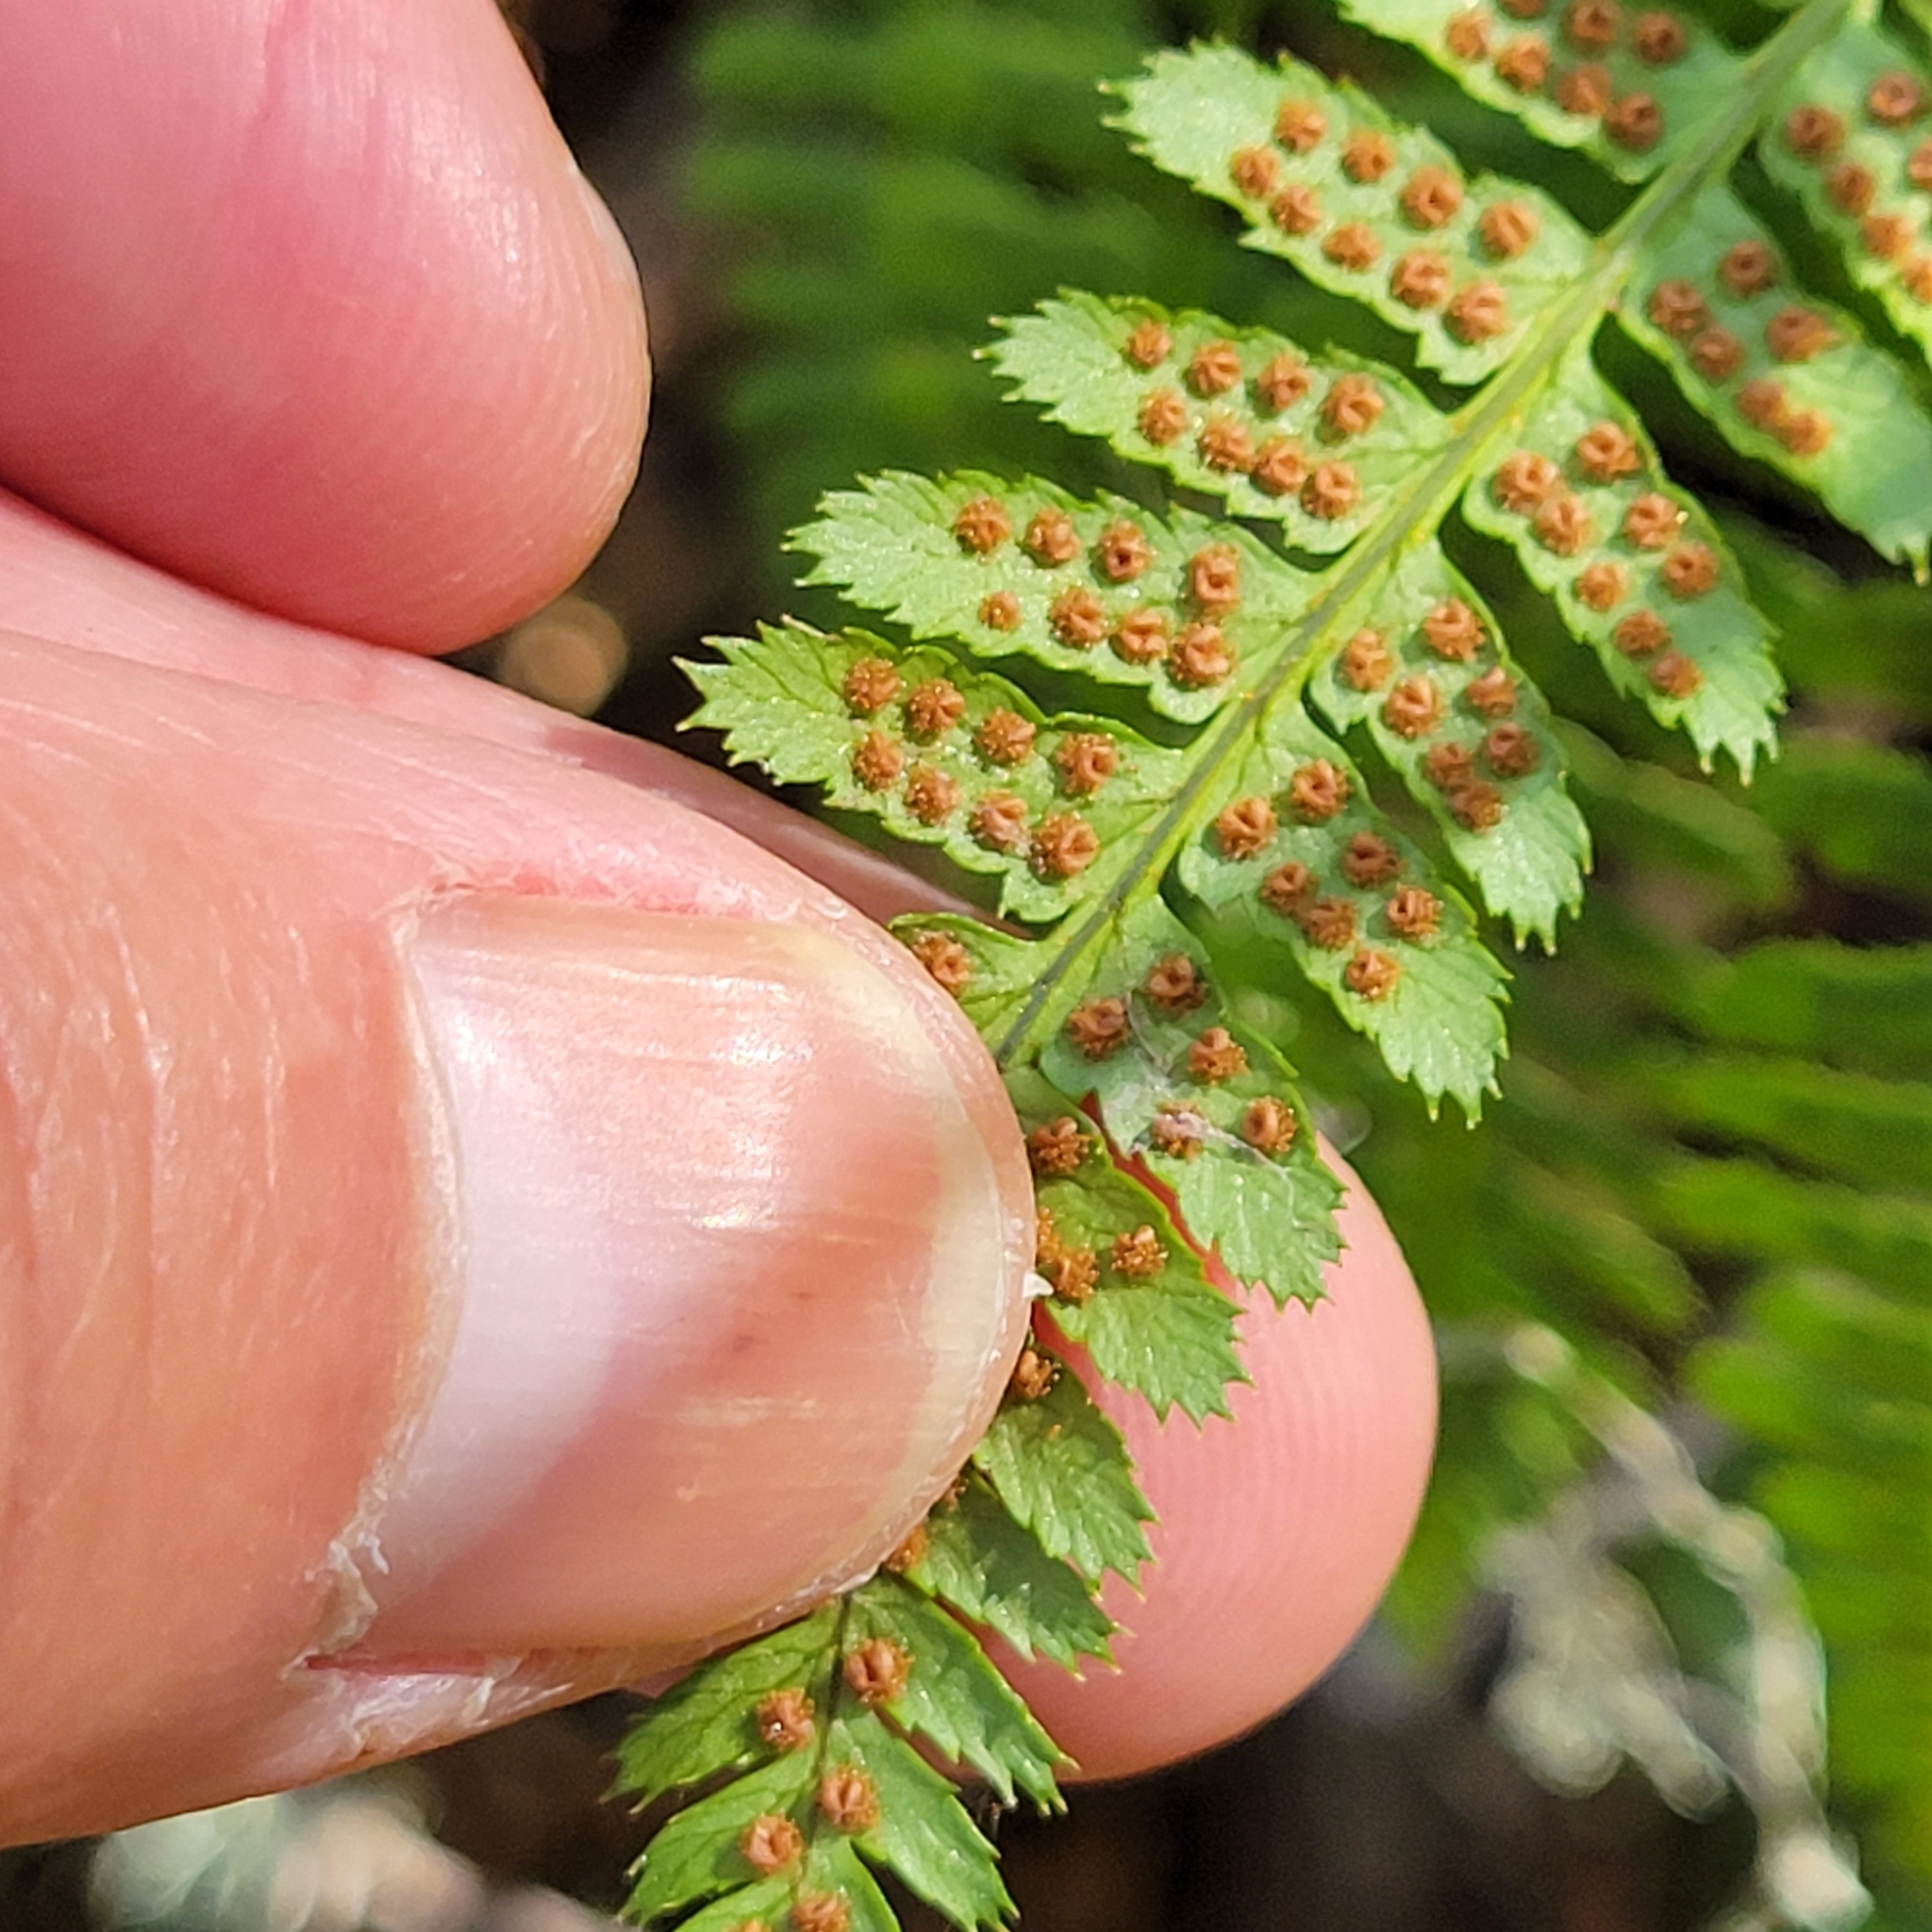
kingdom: Plantae
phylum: Tracheophyta
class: Polypodiopsida
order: Polypodiales
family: Dryopteridaceae
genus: Dryopteris
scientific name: Dryopteris arguta
